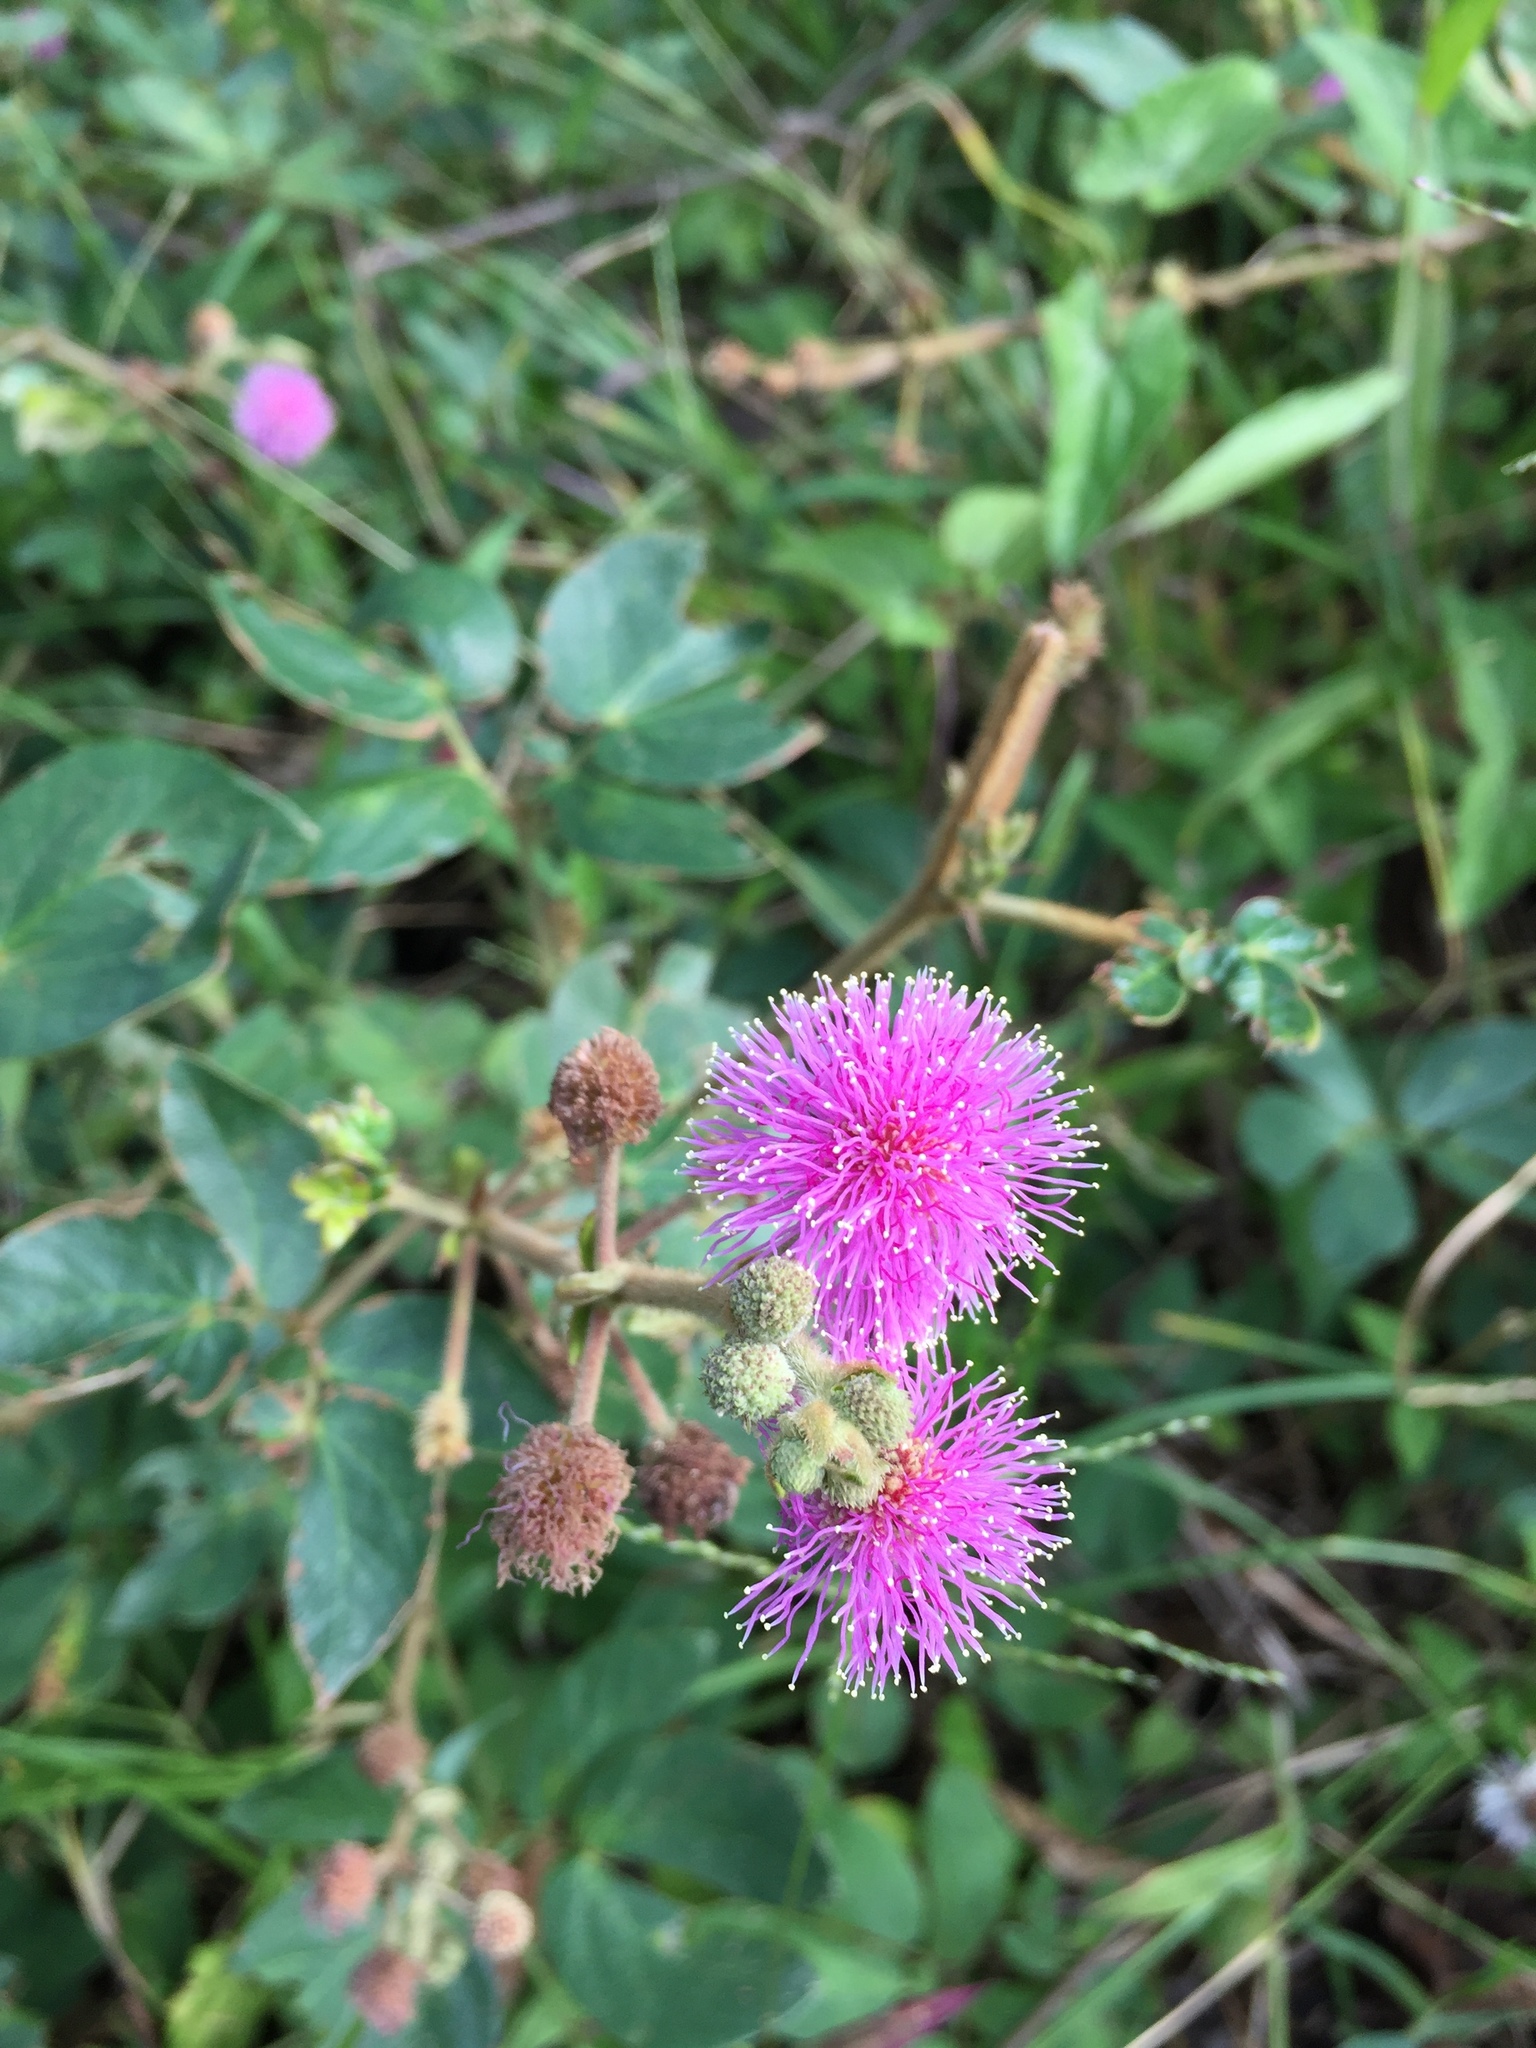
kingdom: Plantae
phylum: Tracheophyta
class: Magnoliopsida
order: Fabales
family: Fabaceae
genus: Mimosa
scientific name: Mimosa albida
